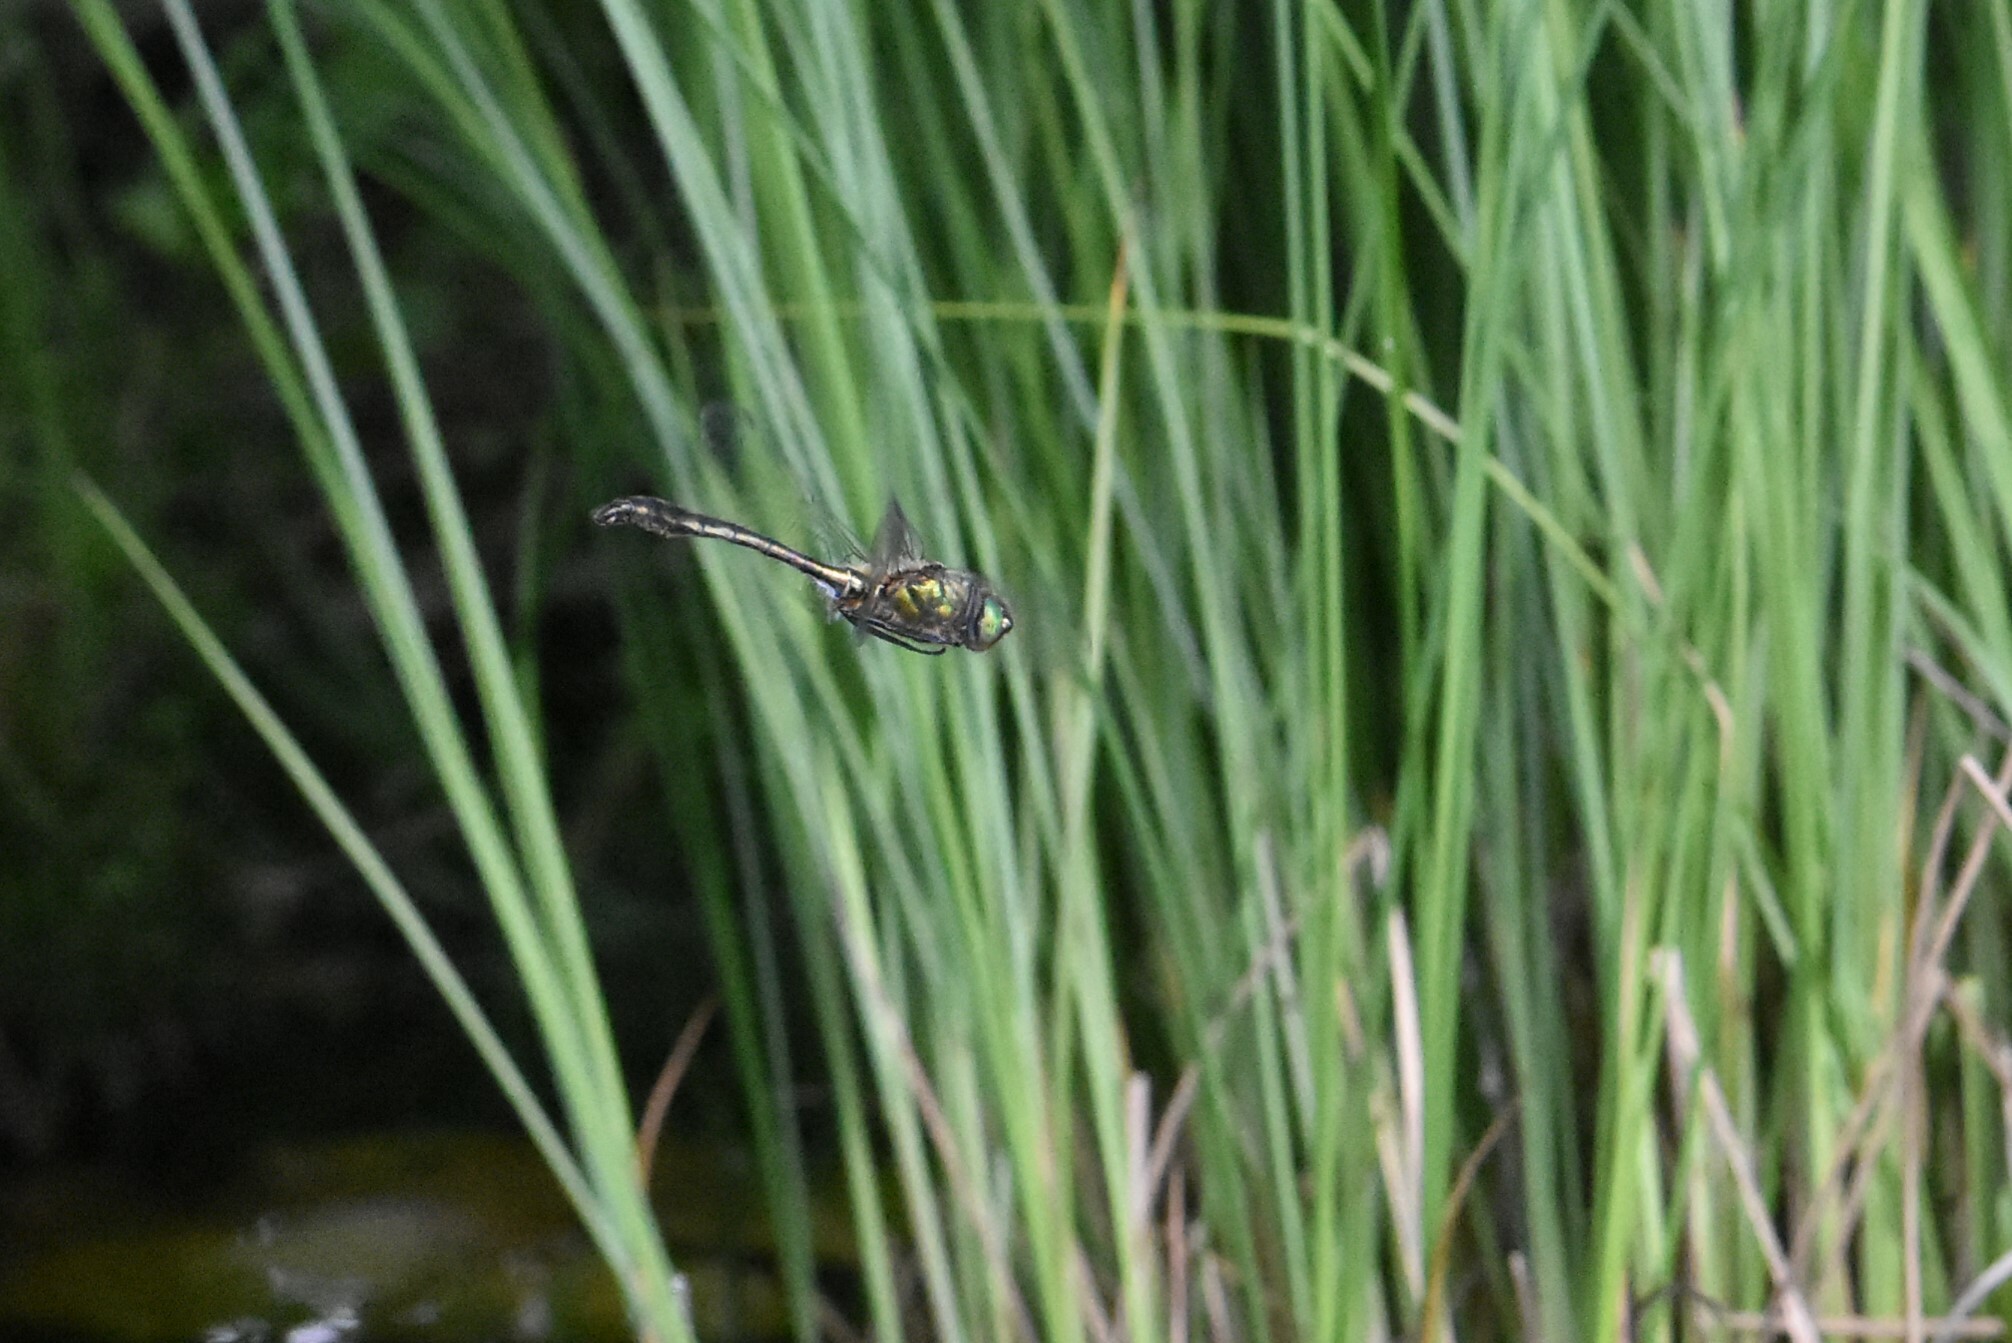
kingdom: Animalia
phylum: Arthropoda
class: Insecta
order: Odonata
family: Corduliidae
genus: Cordulia
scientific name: Cordulia aenea
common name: Downy emerald
